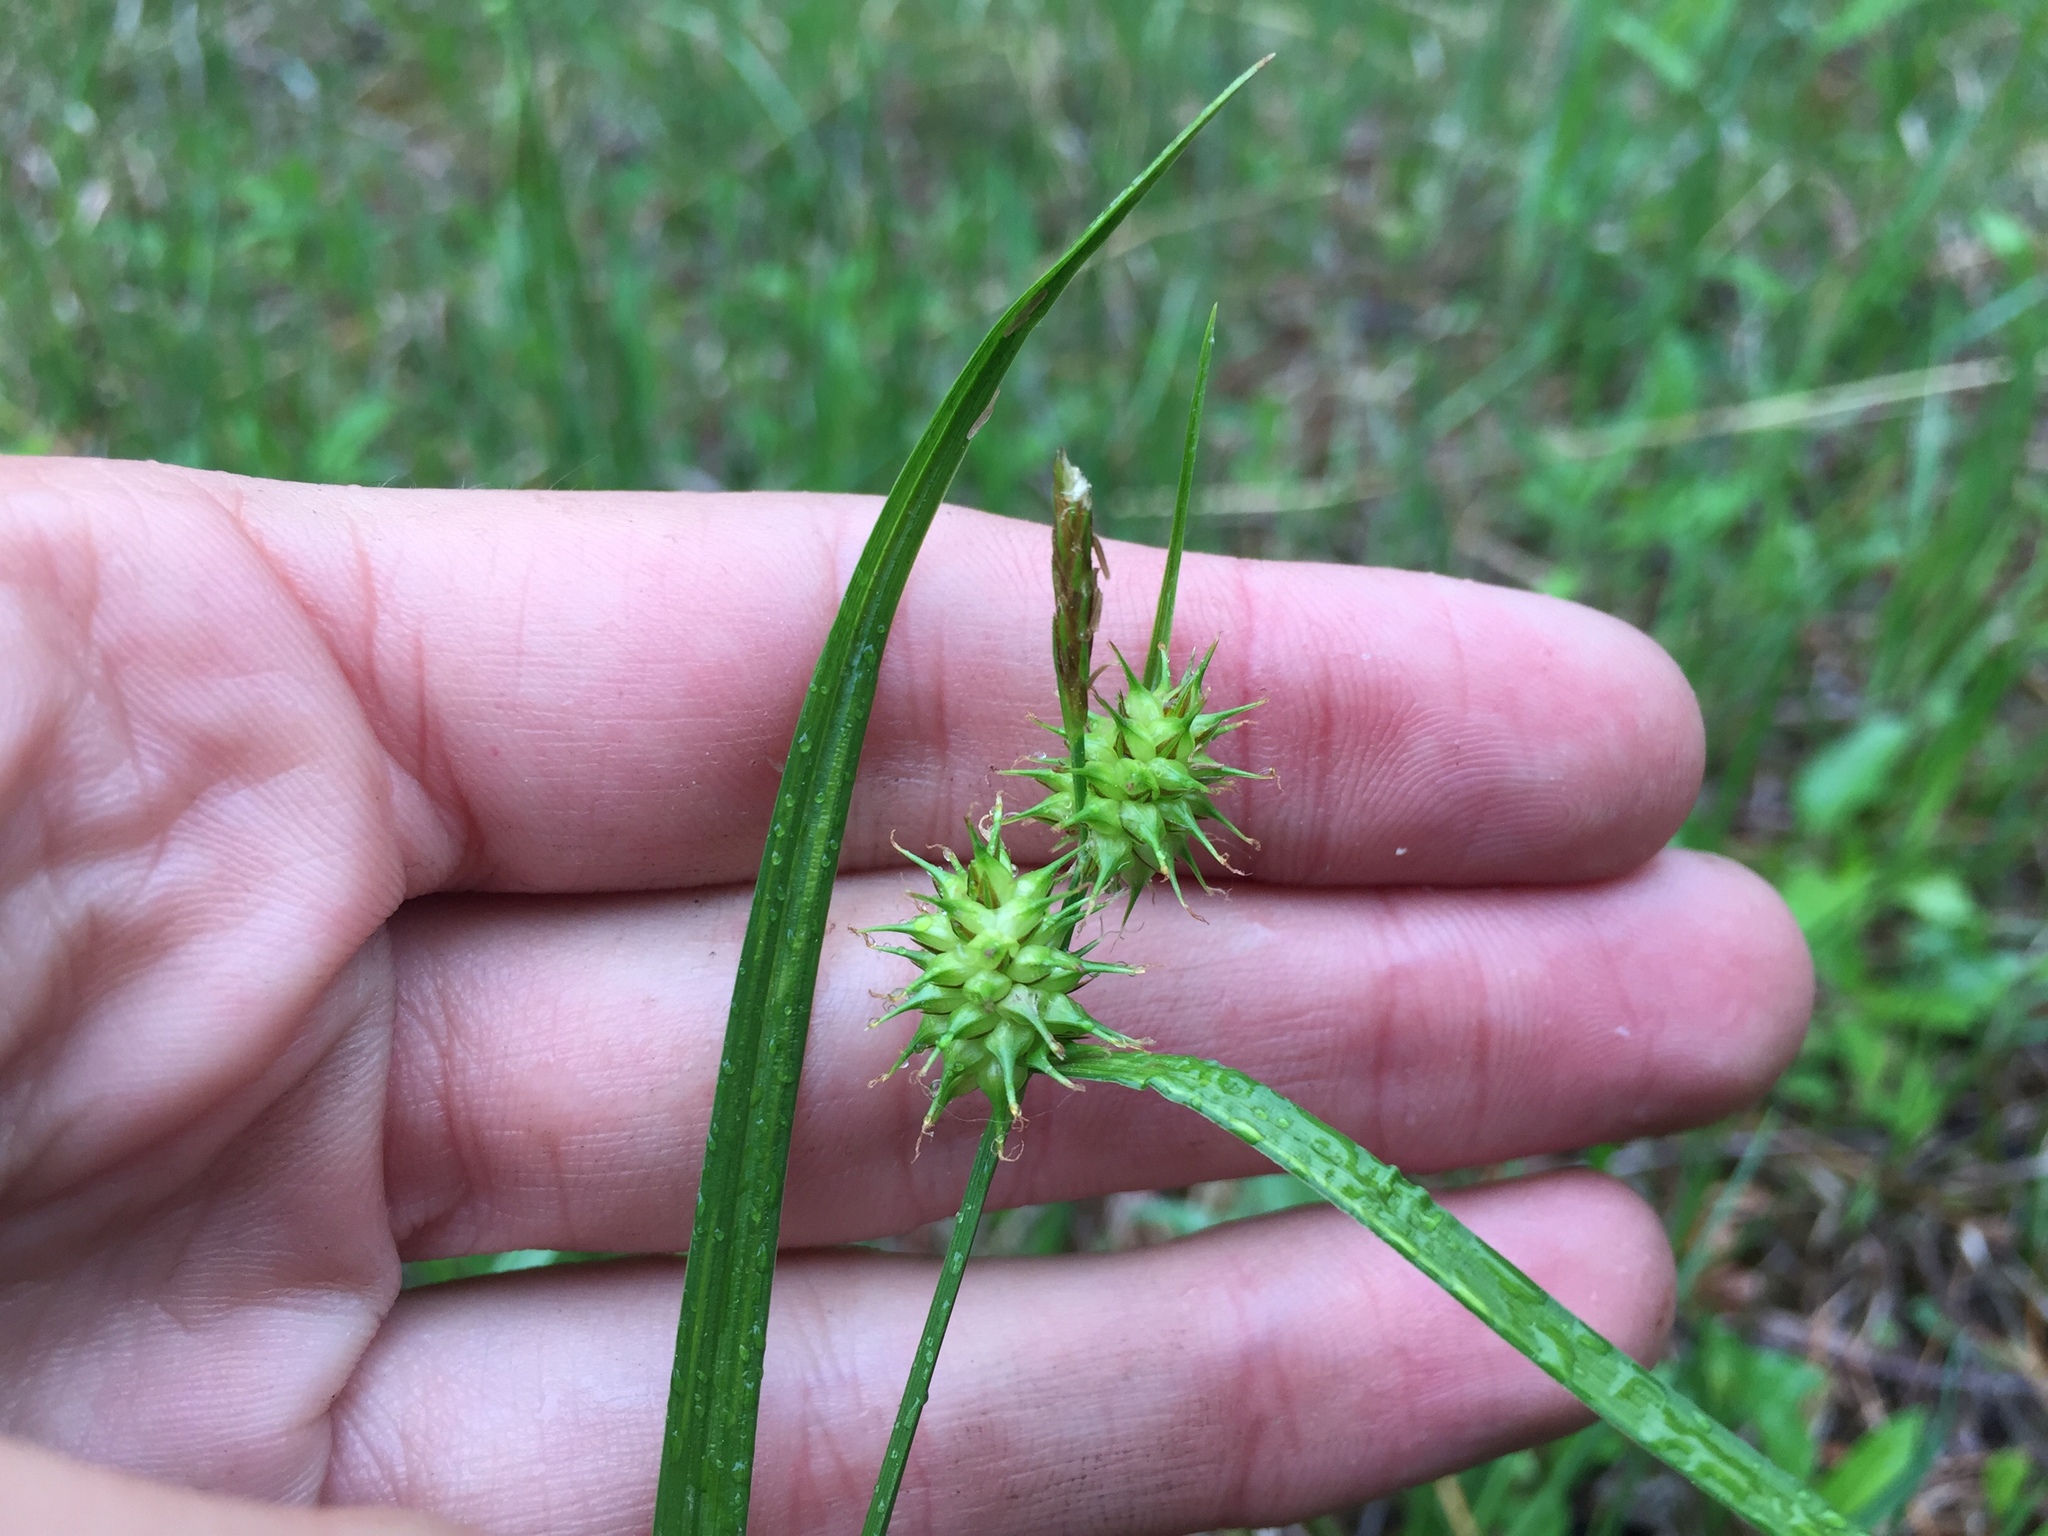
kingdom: Plantae
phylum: Tracheophyta
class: Liliopsida
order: Poales
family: Cyperaceae
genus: Carex
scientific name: Carex flava
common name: Large yellow-sedge
